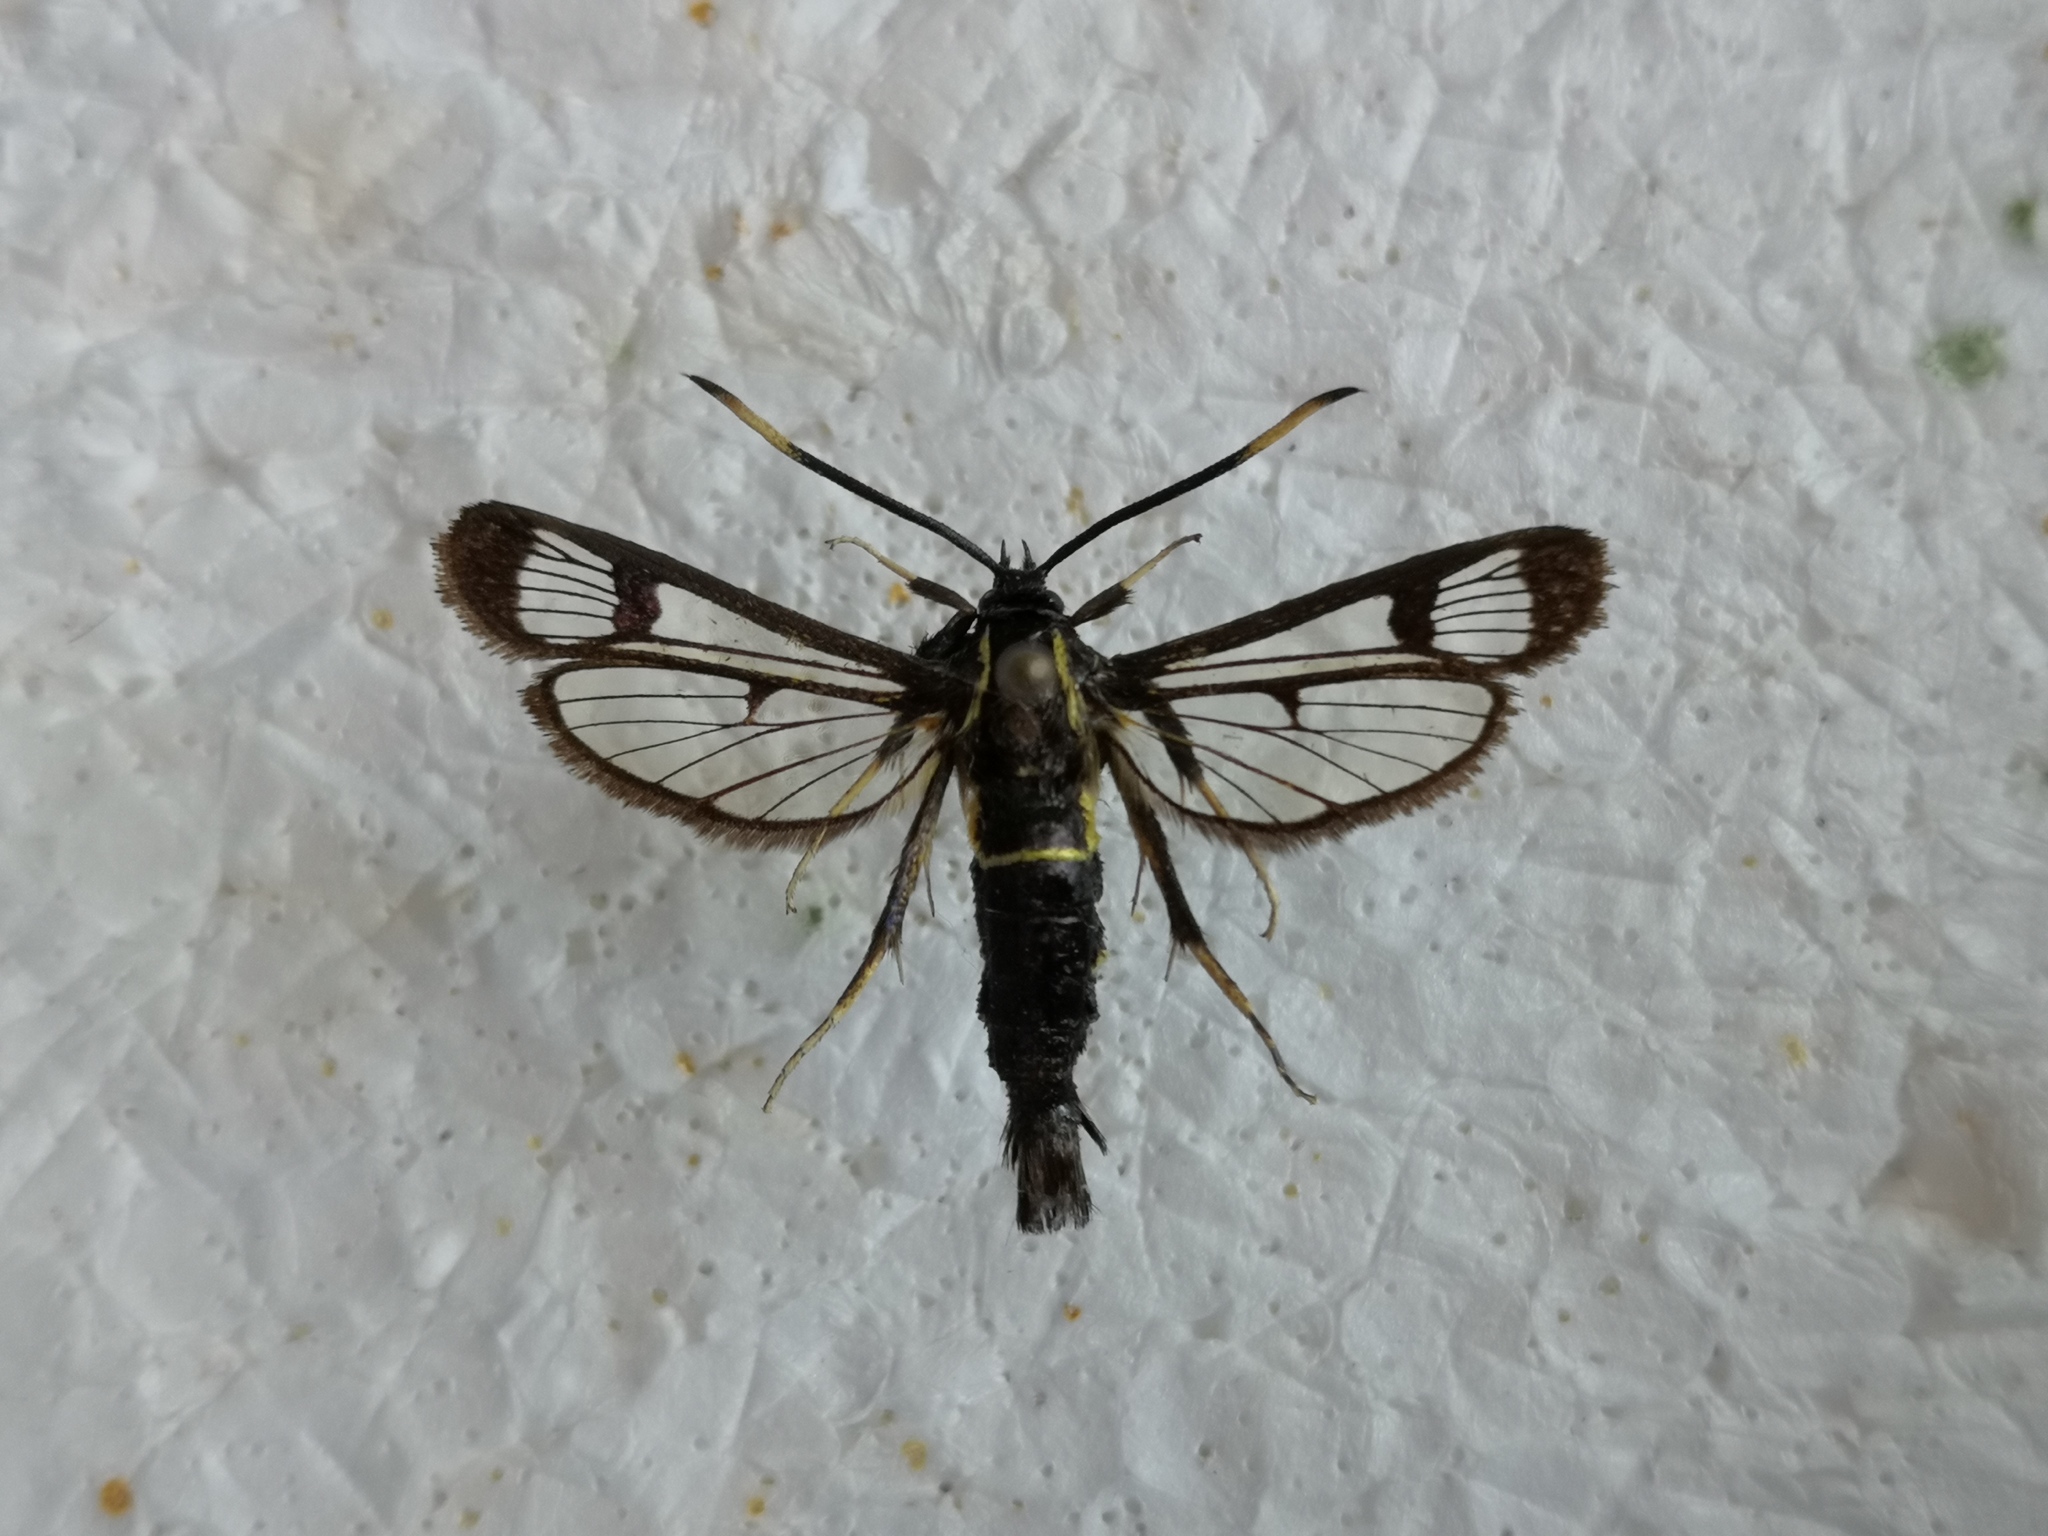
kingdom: Animalia
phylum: Arthropoda
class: Insecta
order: Lepidoptera
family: Sesiidae
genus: Synanthedon
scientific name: Synanthedon spheciformis
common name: White-barred clearwing
